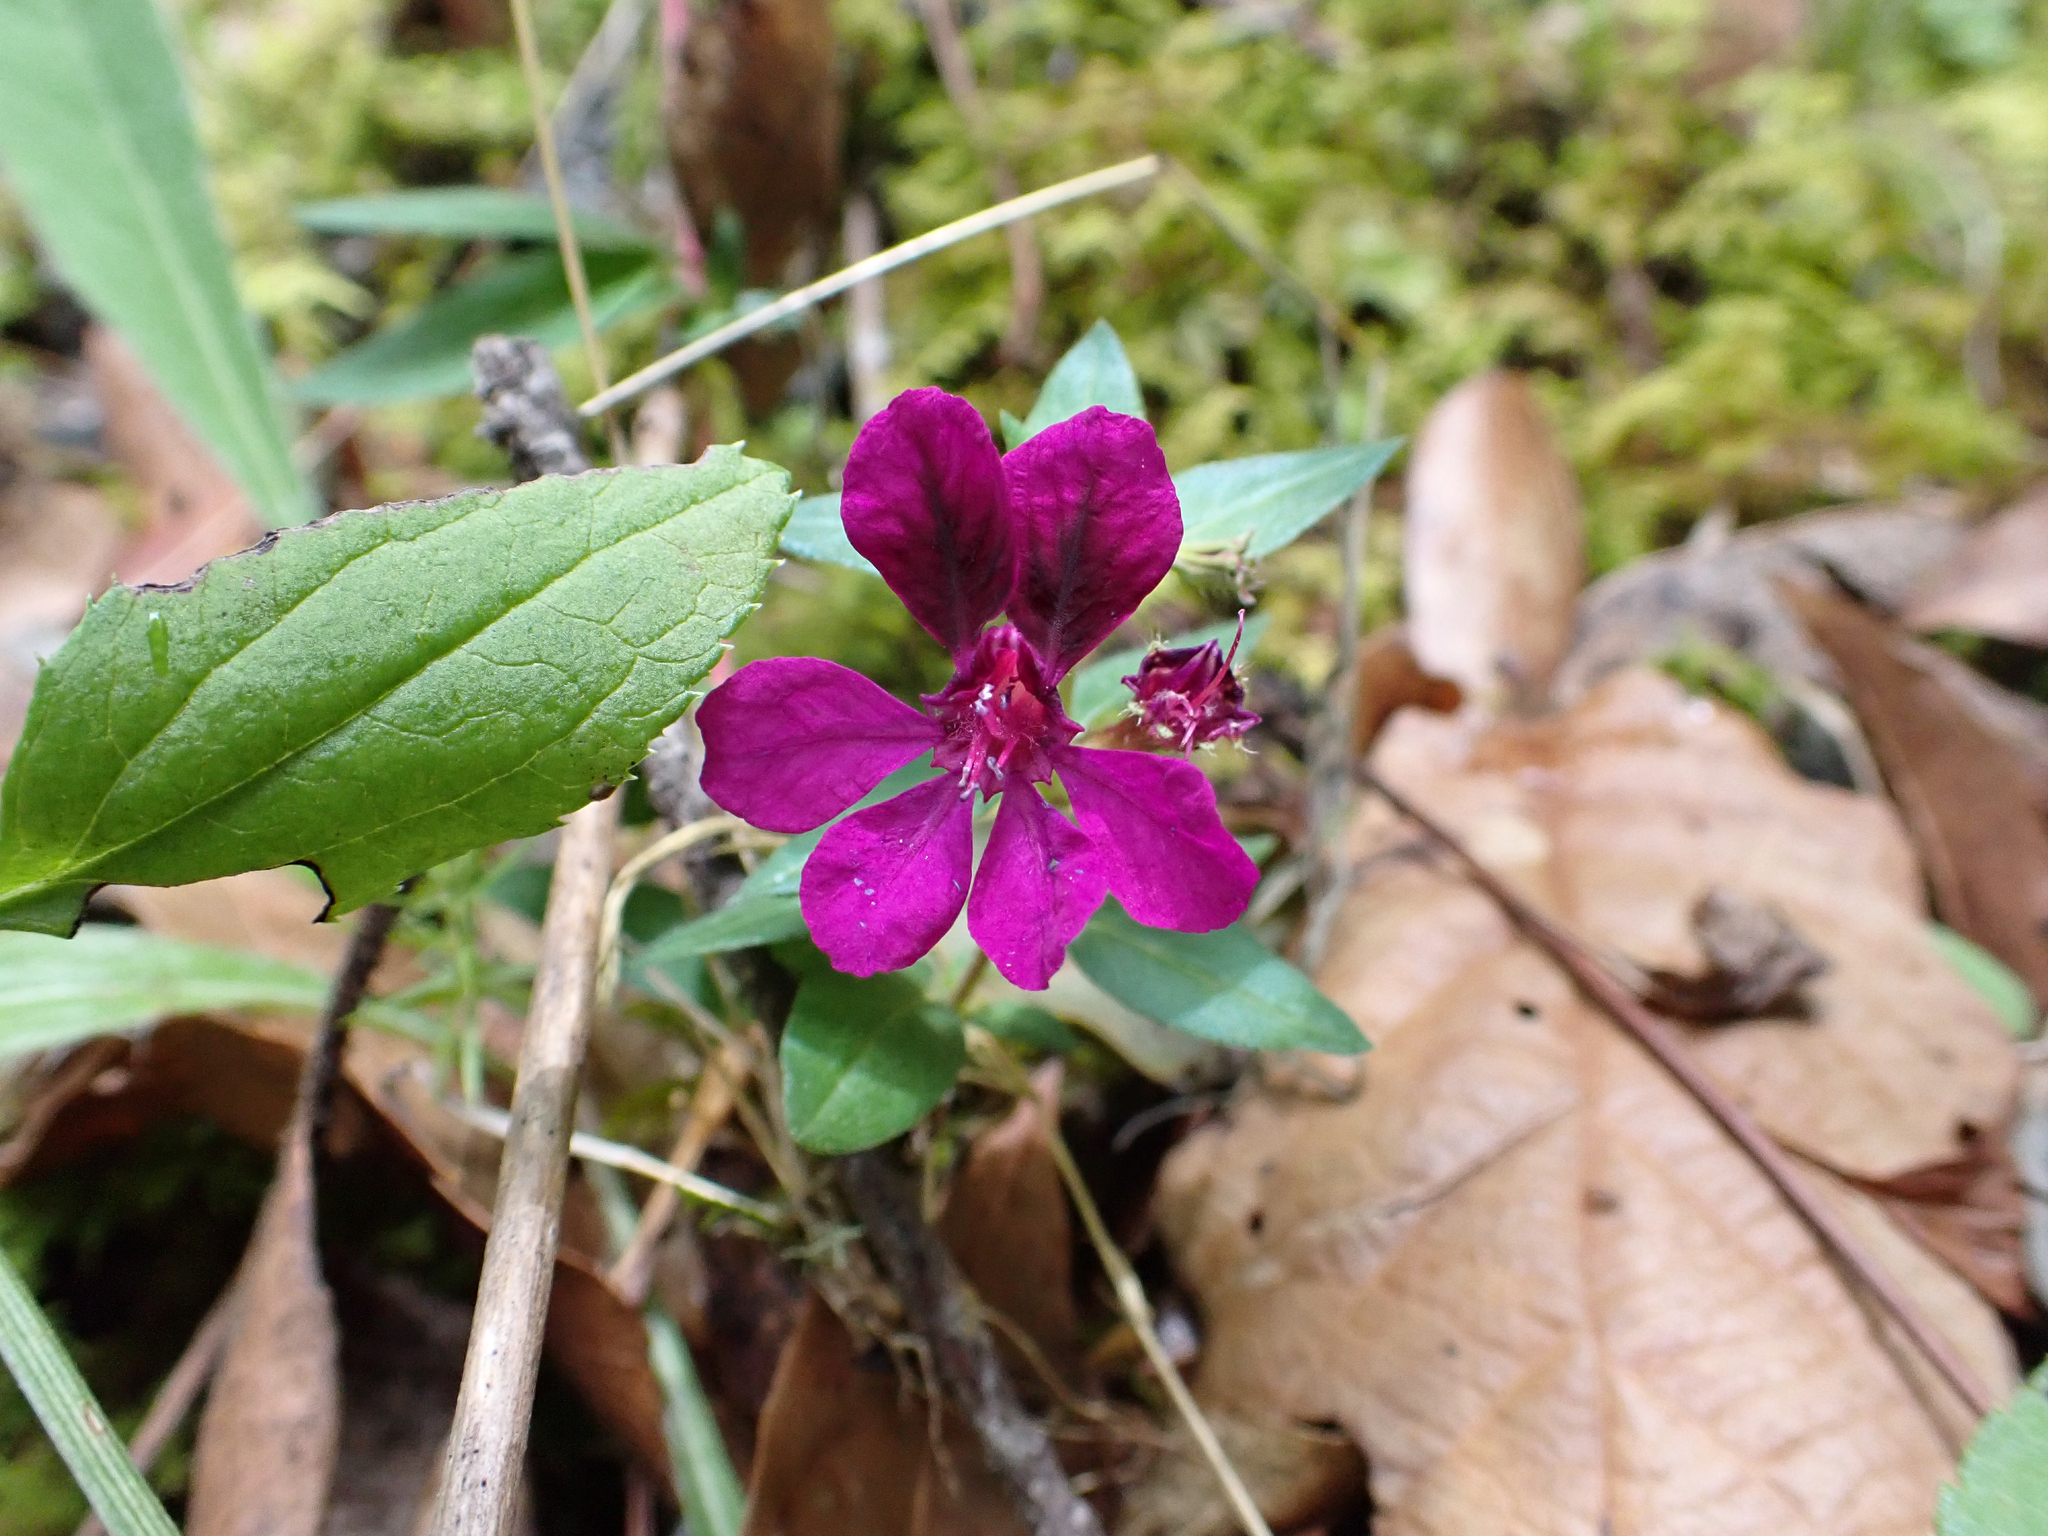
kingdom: Plantae
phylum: Tracheophyta
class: Magnoliopsida
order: Myrtales
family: Lythraceae
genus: Cuphea
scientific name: Cuphea aequipetala
